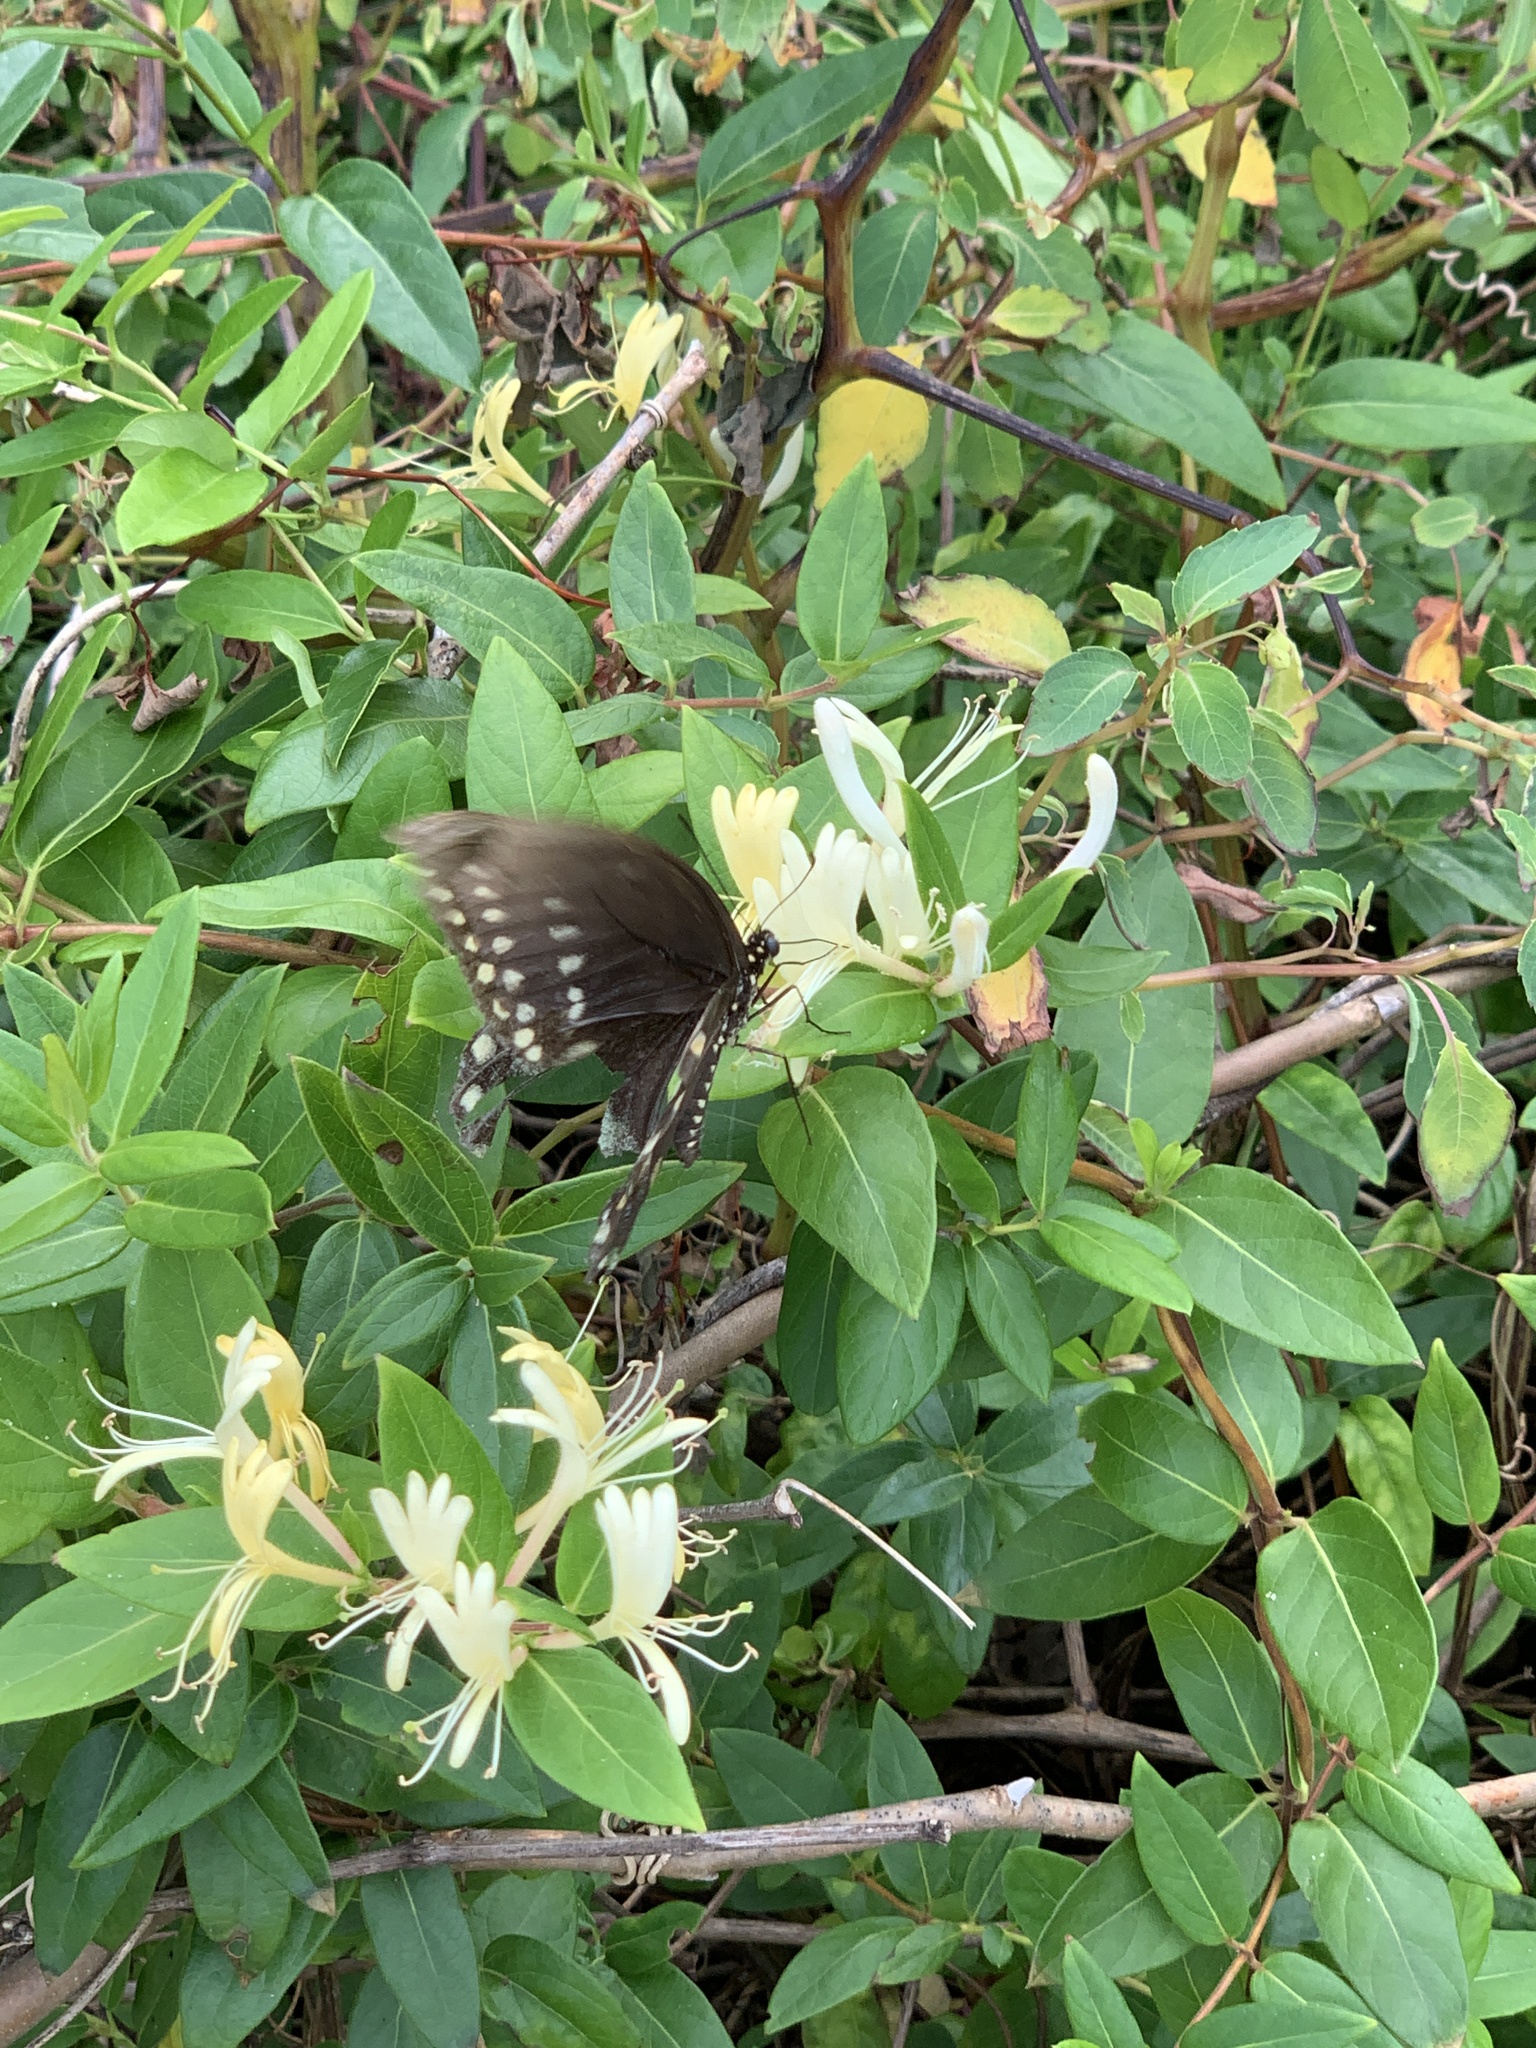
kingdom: Animalia
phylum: Arthropoda
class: Insecta
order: Lepidoptera
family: Papilionidae
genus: Papilio
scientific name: Papilio troilus
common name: Spicebush swallowtail
